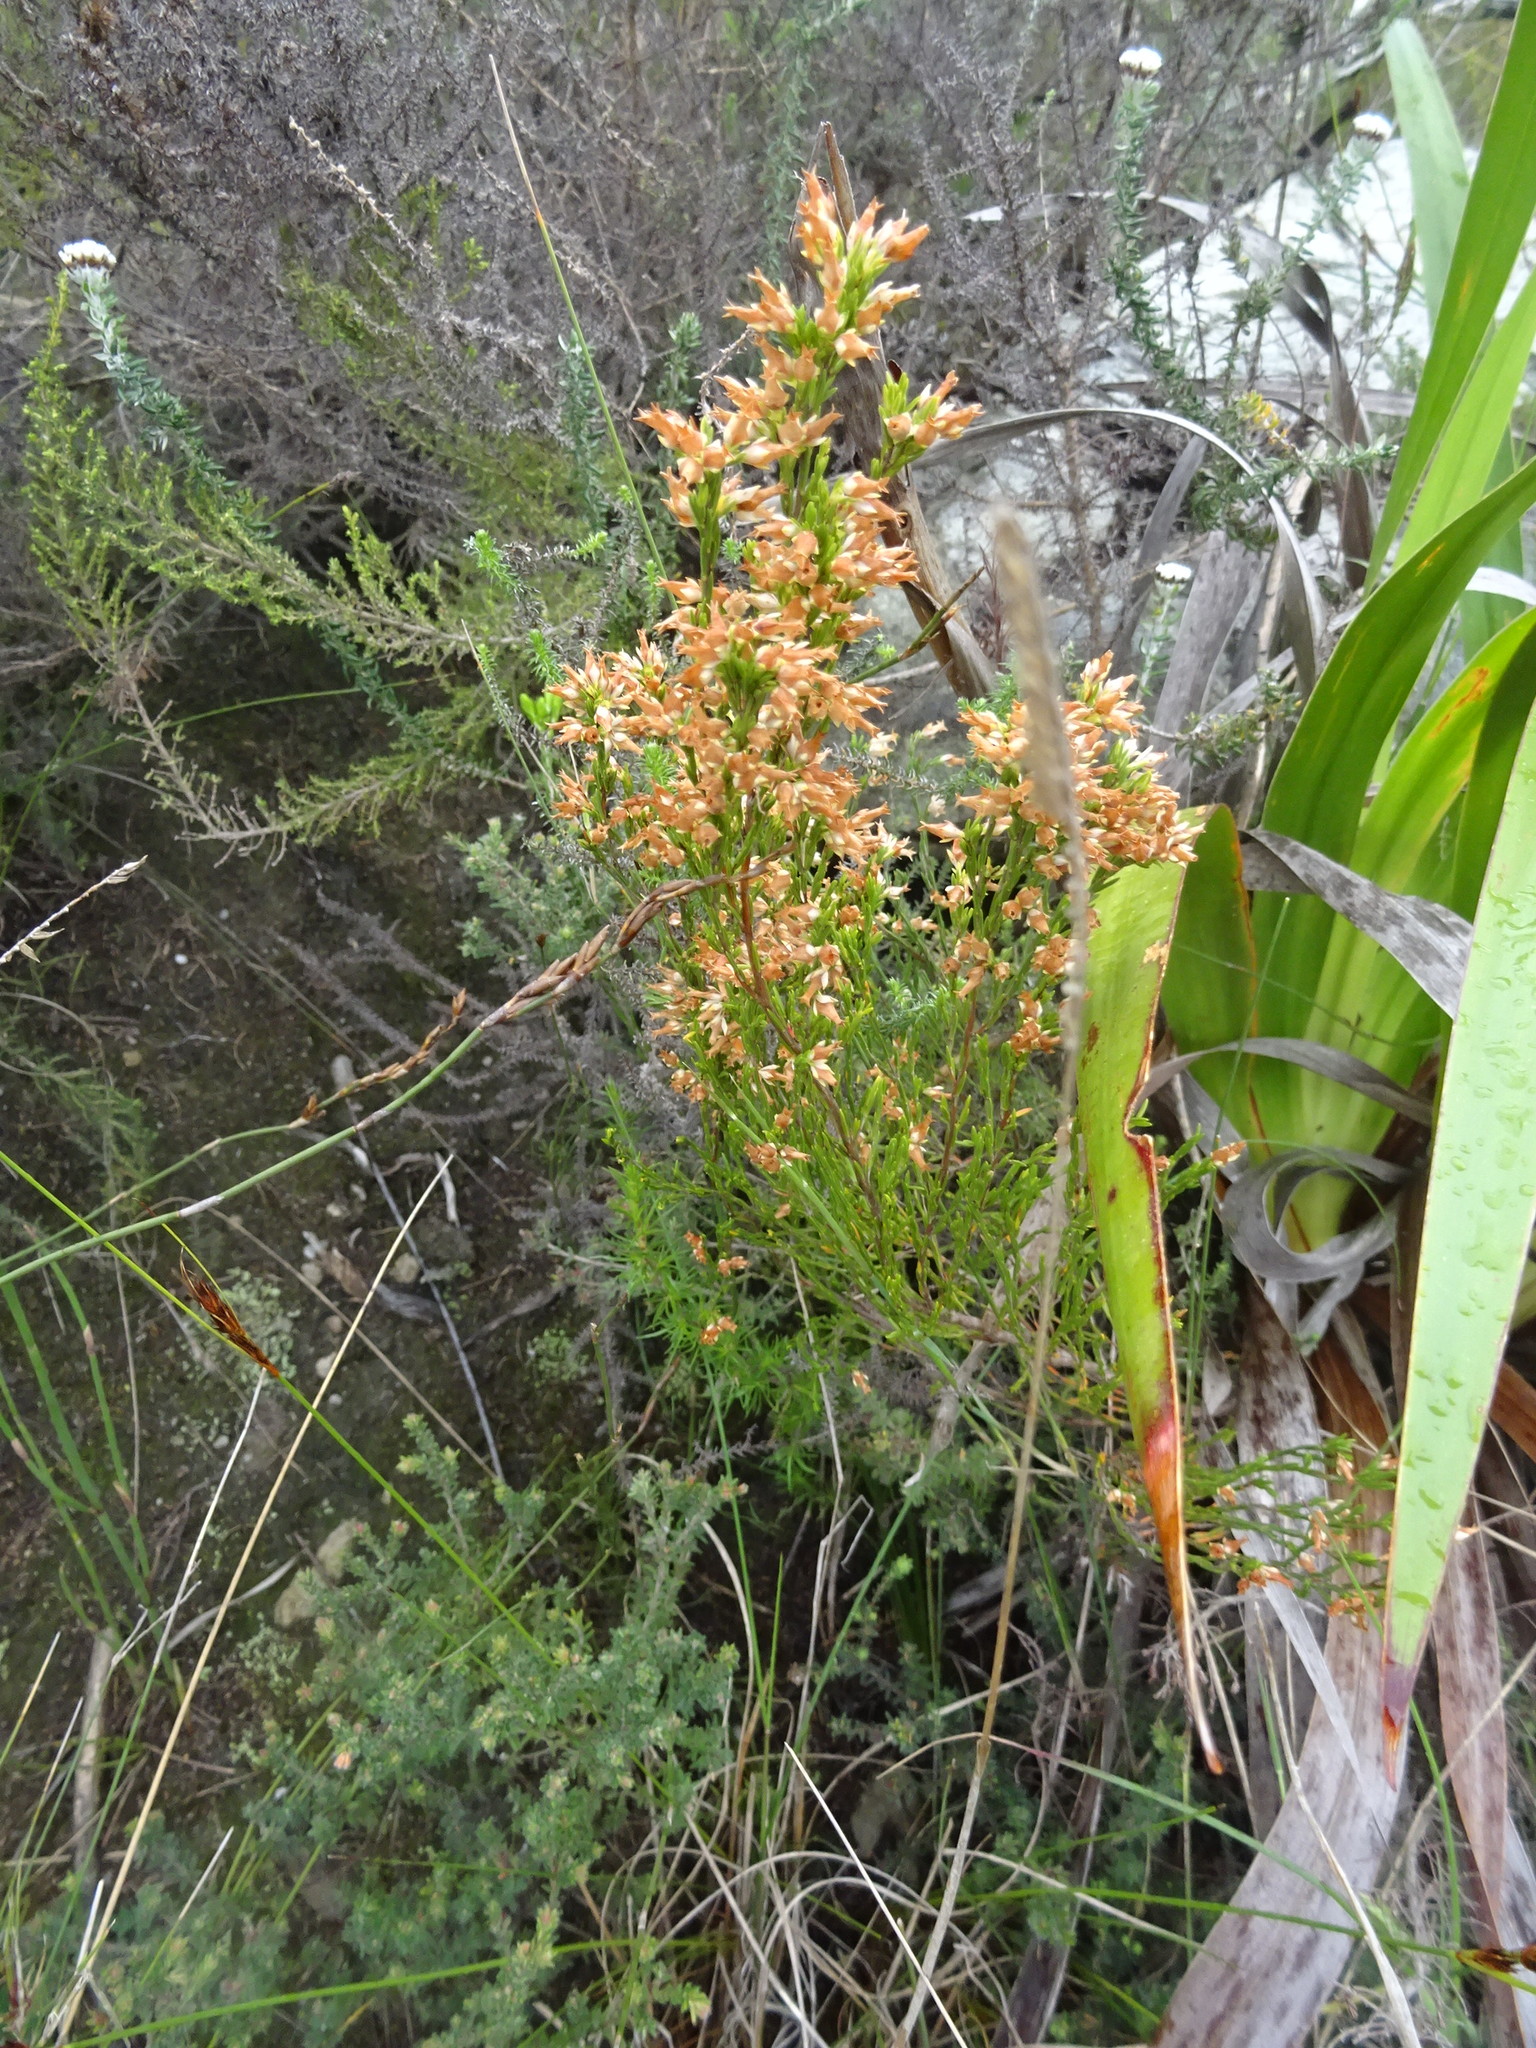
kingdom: Plantae
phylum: Tracheophyta
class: Magnoliopsida
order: Ericales
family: Ericaceae
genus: Erica
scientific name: Erica lutea
